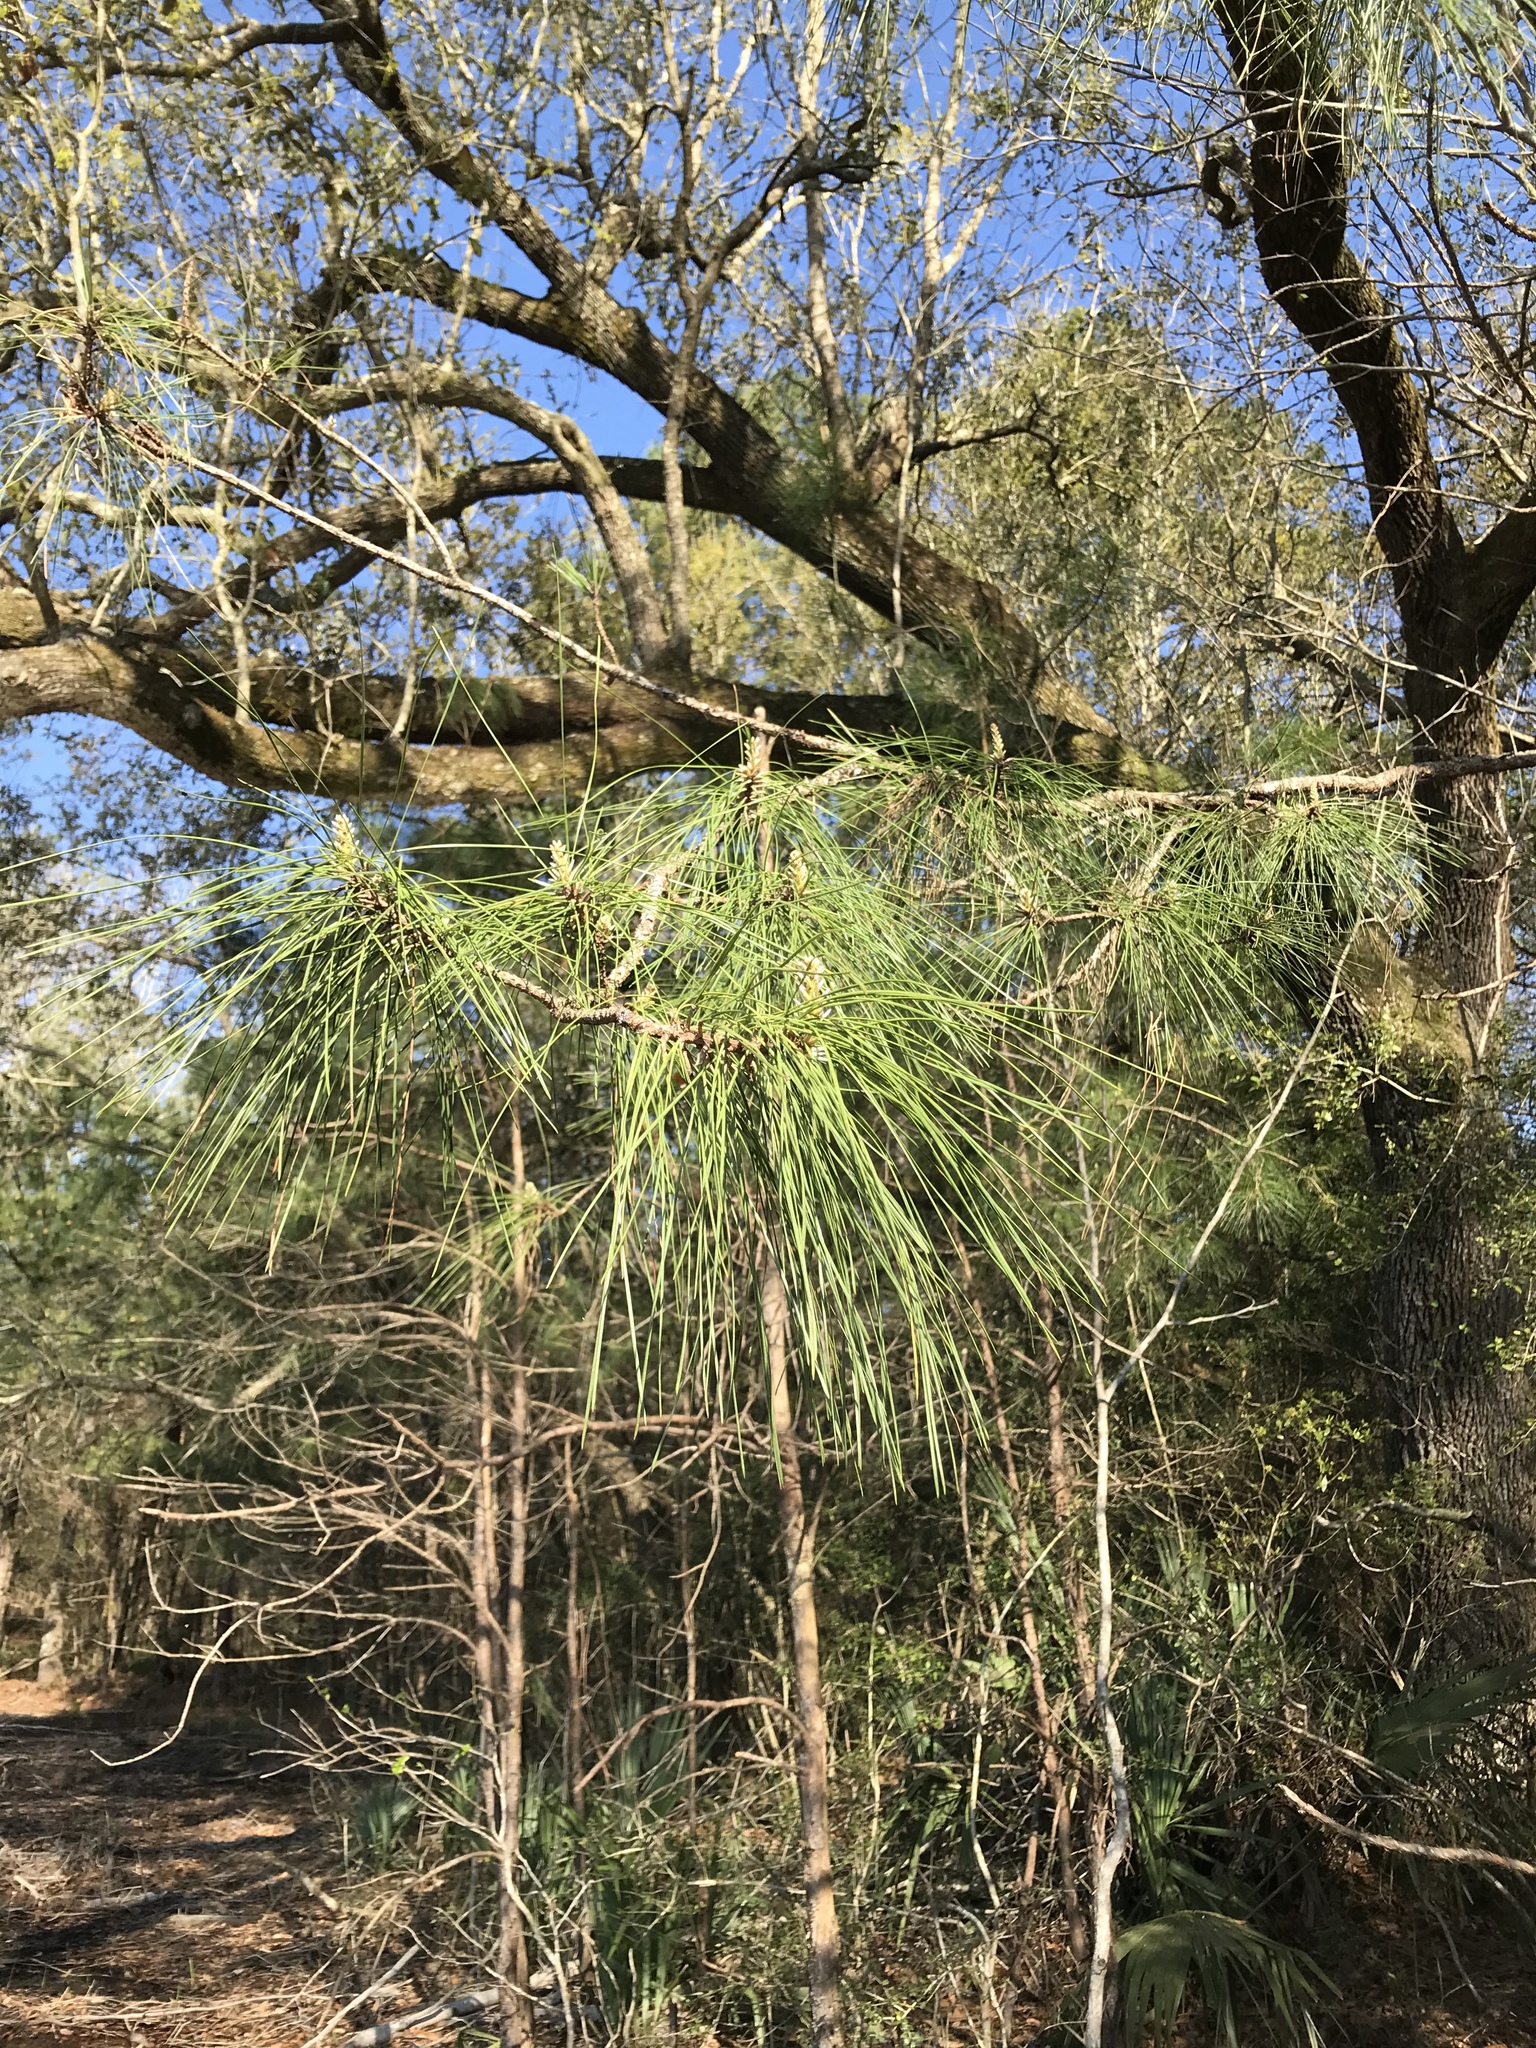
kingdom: Plantae
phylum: Tracheophyta
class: Pinopsida
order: Pinales
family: Pinaceae
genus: Pinus
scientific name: Pinus taeda
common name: Loblolly pine
